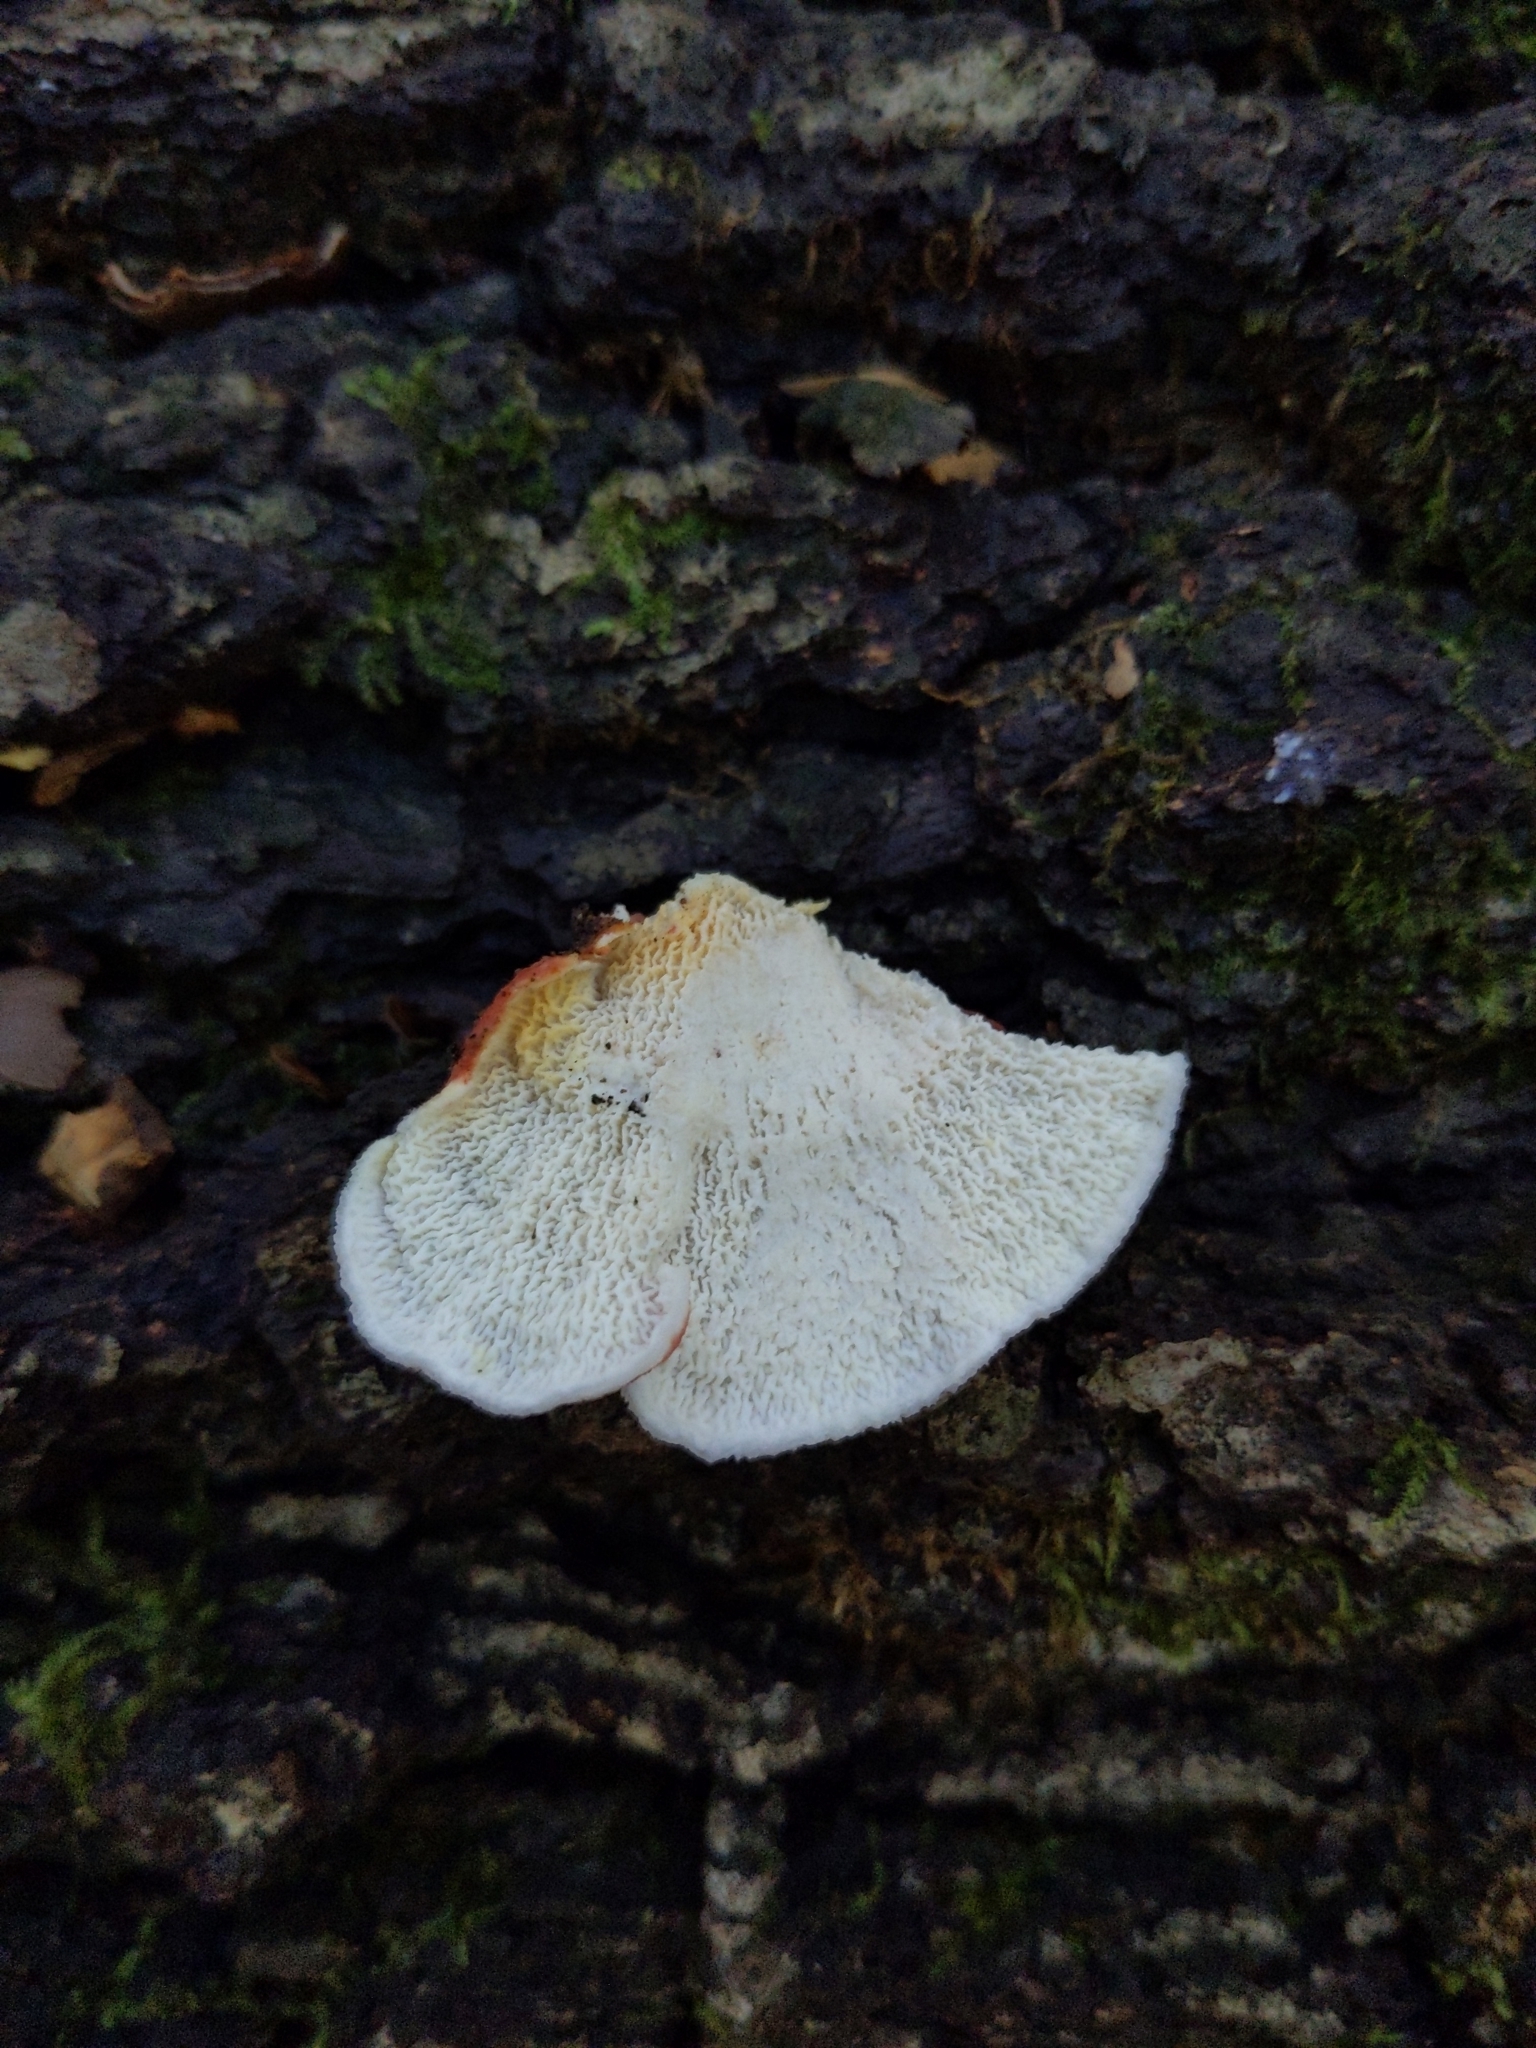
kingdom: Fungi
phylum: Basidiomycota
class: Agaricomycetes
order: Polyporales
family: Irpicaceae
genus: Byssomerulius
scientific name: Byssomerulius incarnatus
